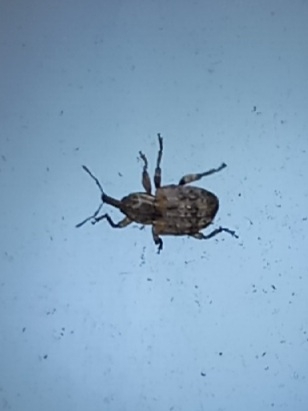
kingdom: Animalia
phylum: Arthropoda
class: Insecta
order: Coleoptera
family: Curculionidae
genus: Conotrachelus
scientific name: Conotrachelus carolinensis
